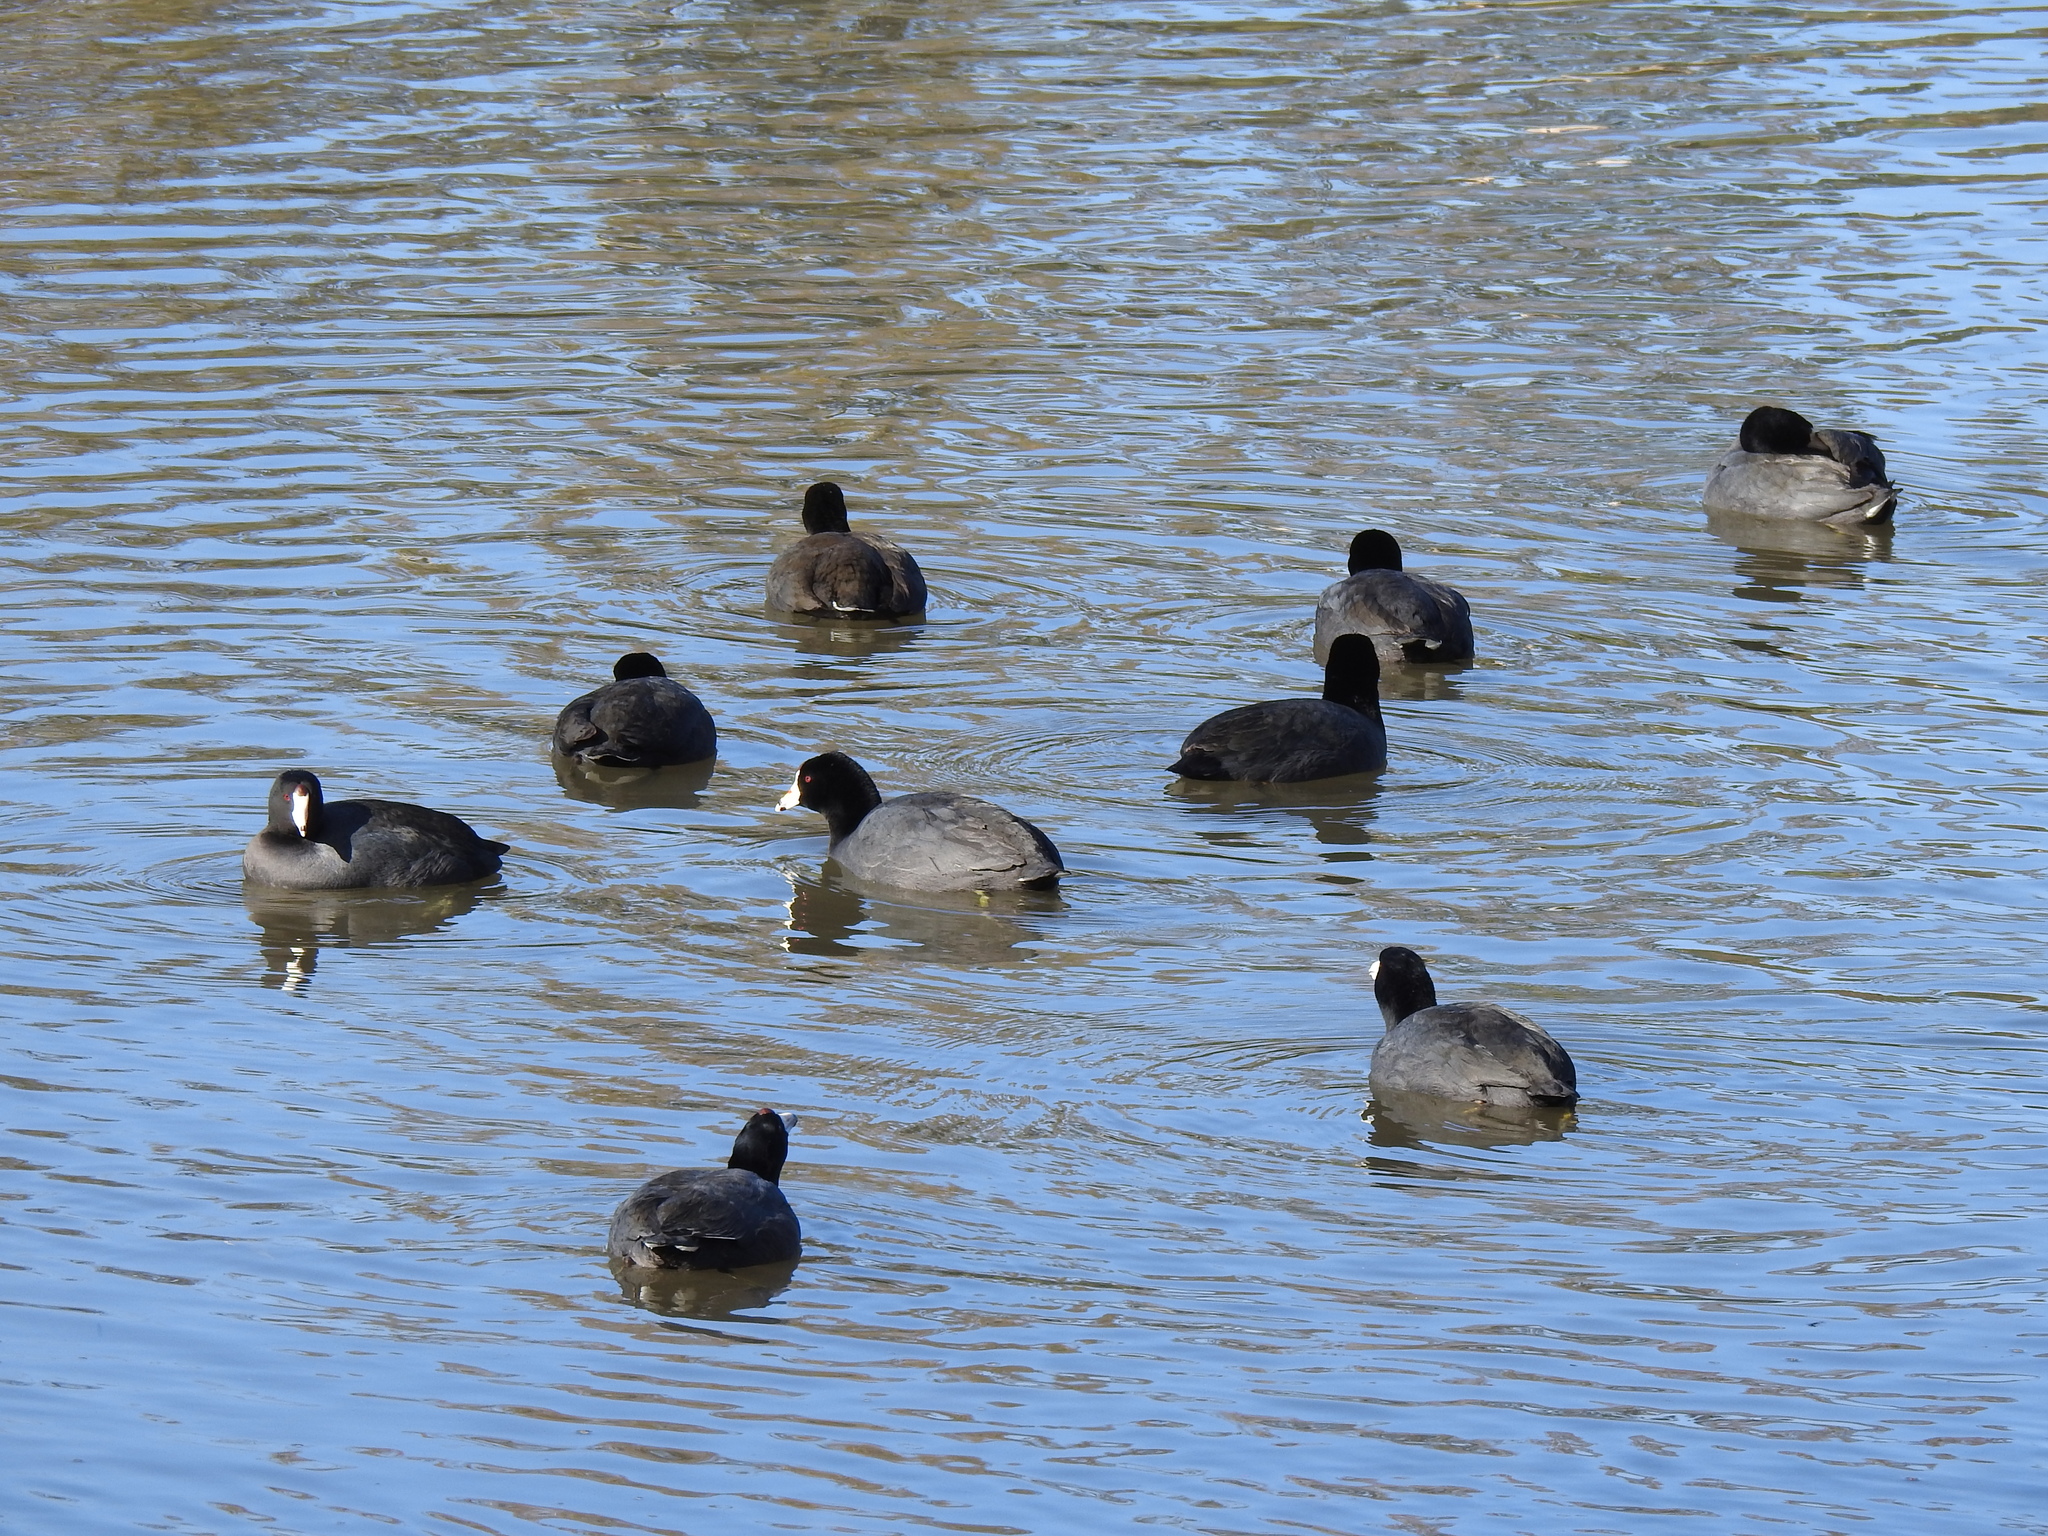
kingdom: Animalia
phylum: Chordata
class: Aves
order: Gruiformes
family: Rallidae
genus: Fulica
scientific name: Fulica americana
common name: American coot
